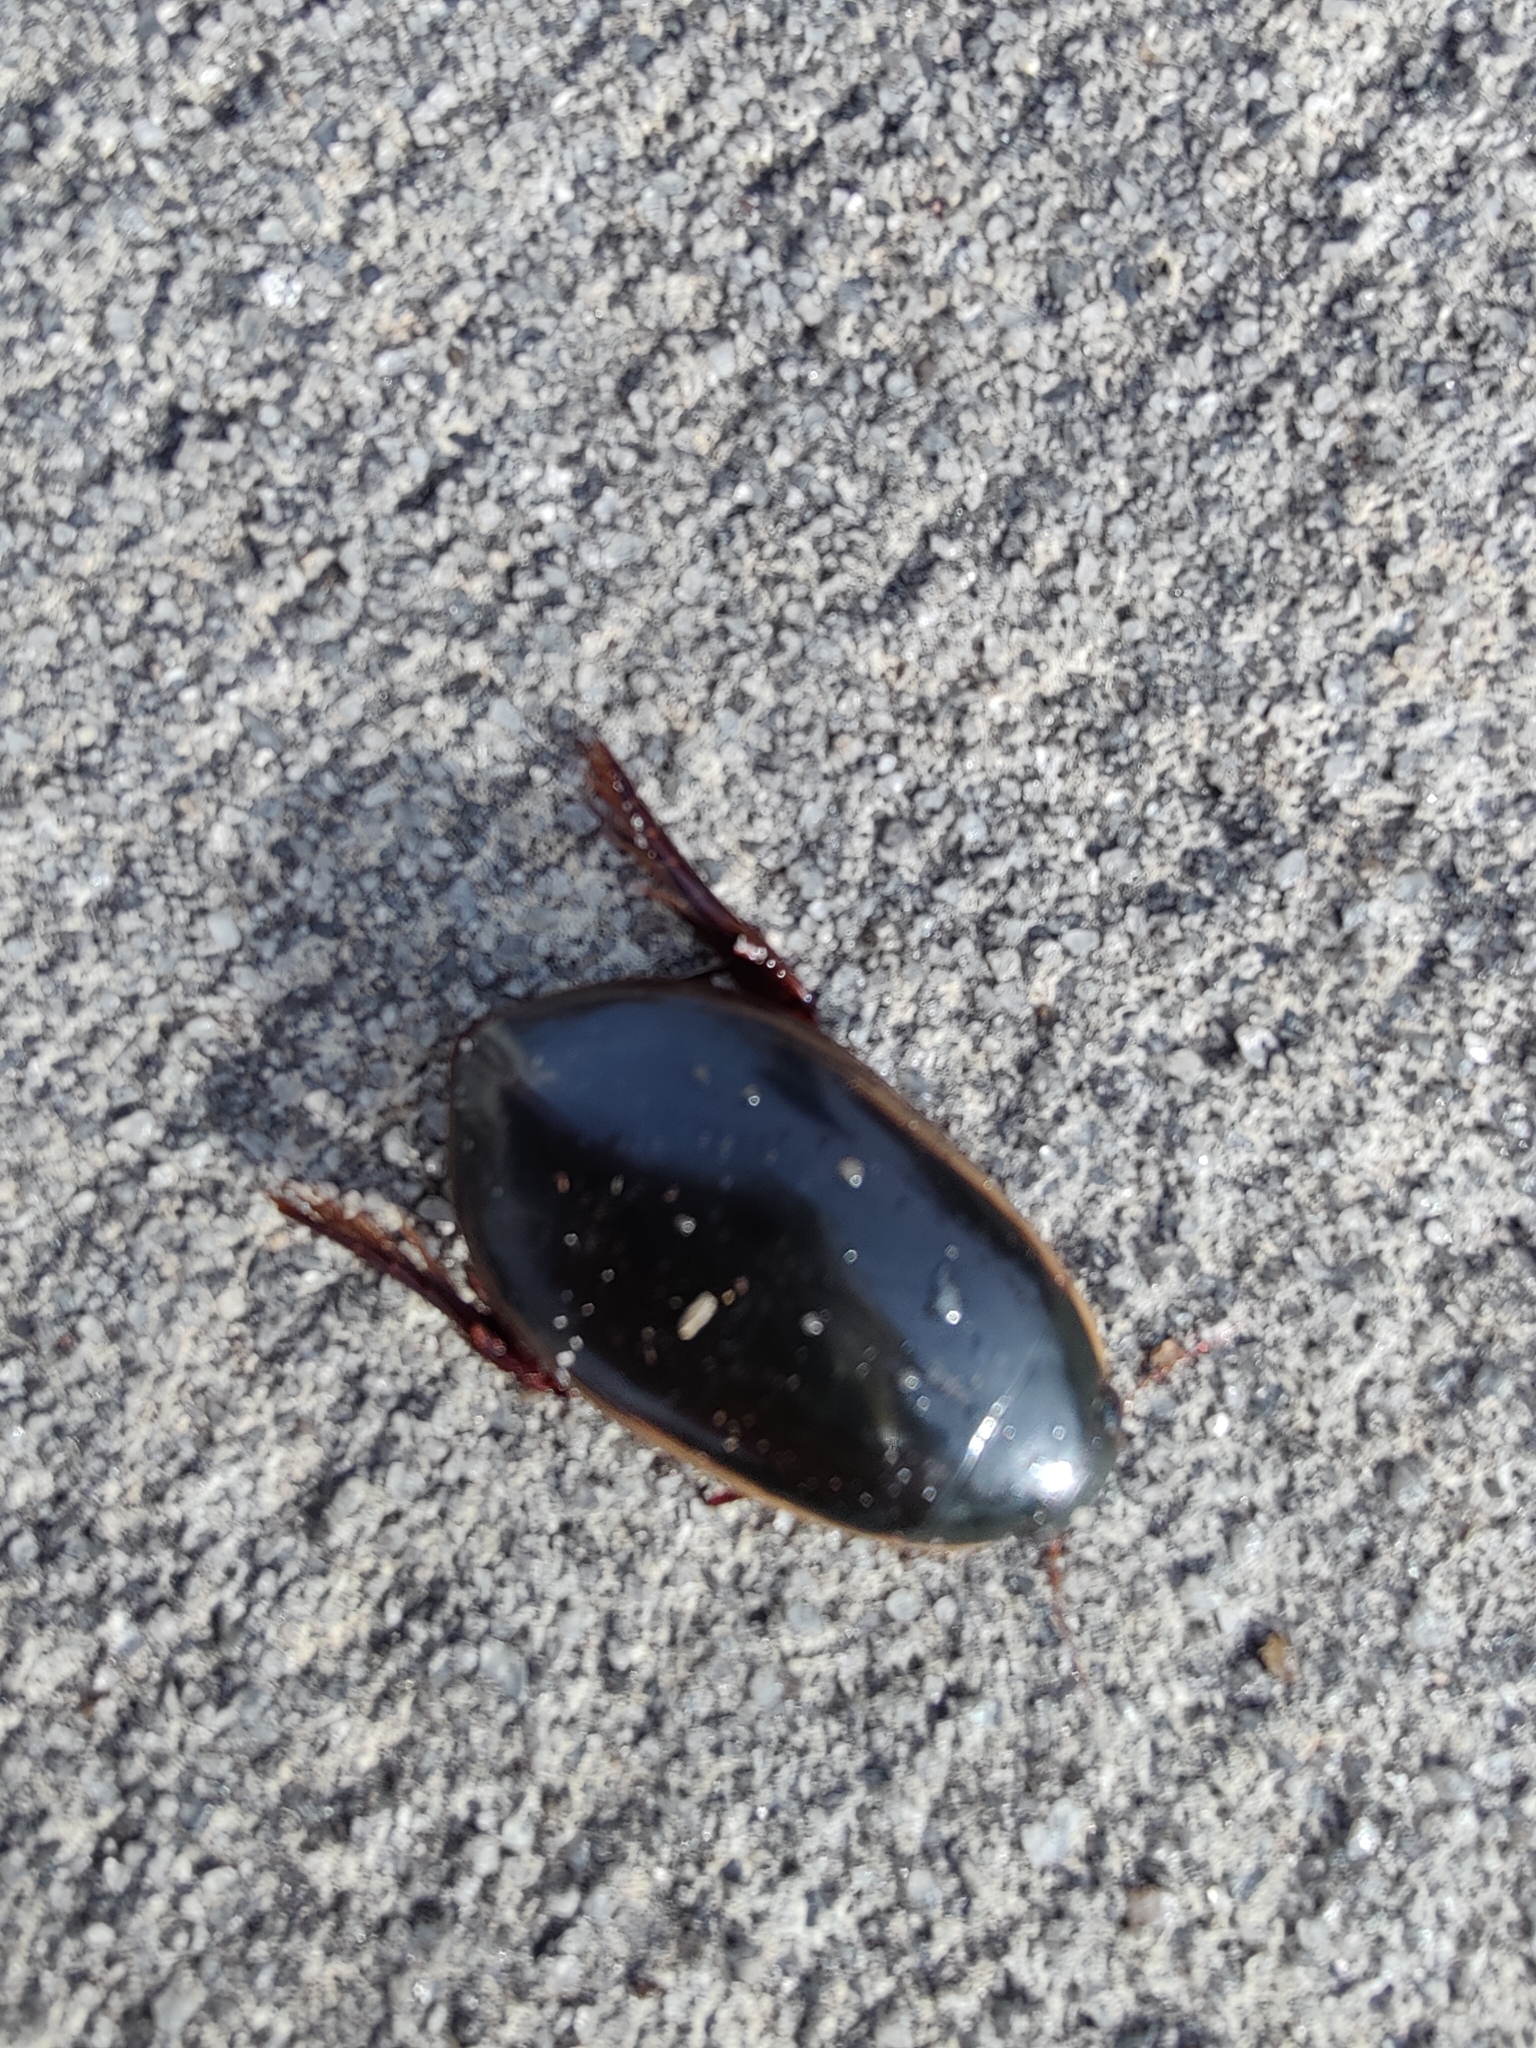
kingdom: Animalia
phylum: Arthropoda
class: Insecta
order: Coleoptera
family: Dytiscidae
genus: Cybister
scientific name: Cybister fimbriolatus
